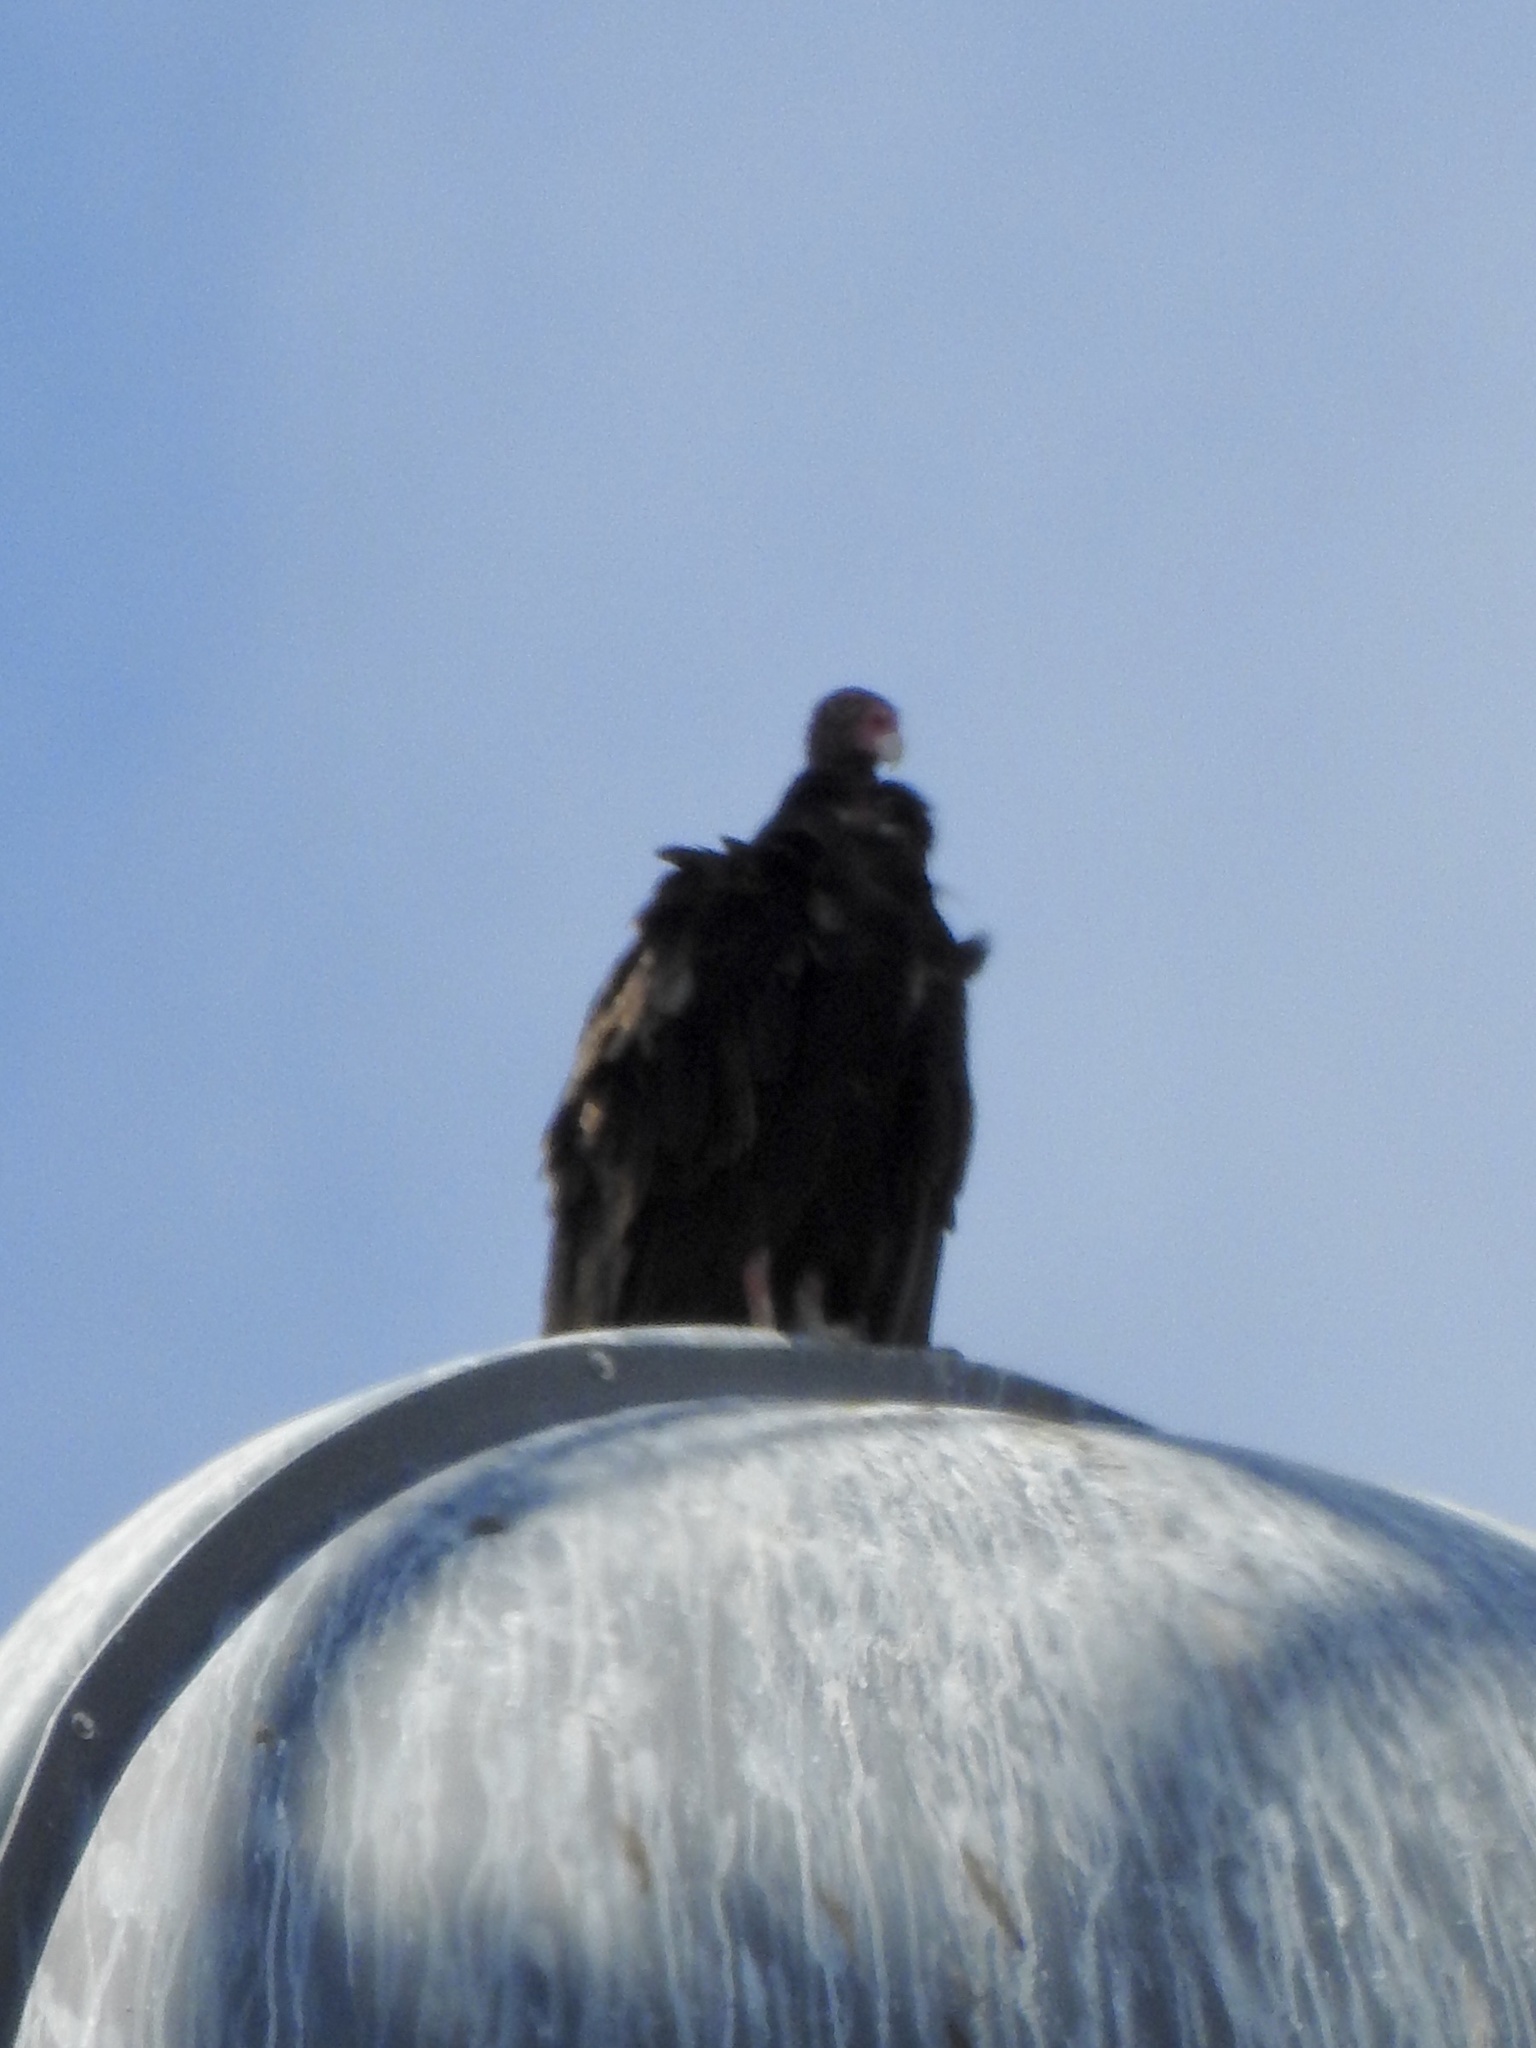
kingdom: Animalia
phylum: Chordata
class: Aves
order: Accipitriformes
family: Cathartidae
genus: Cathartes
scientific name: Cathartes aura
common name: Turkey vulture
